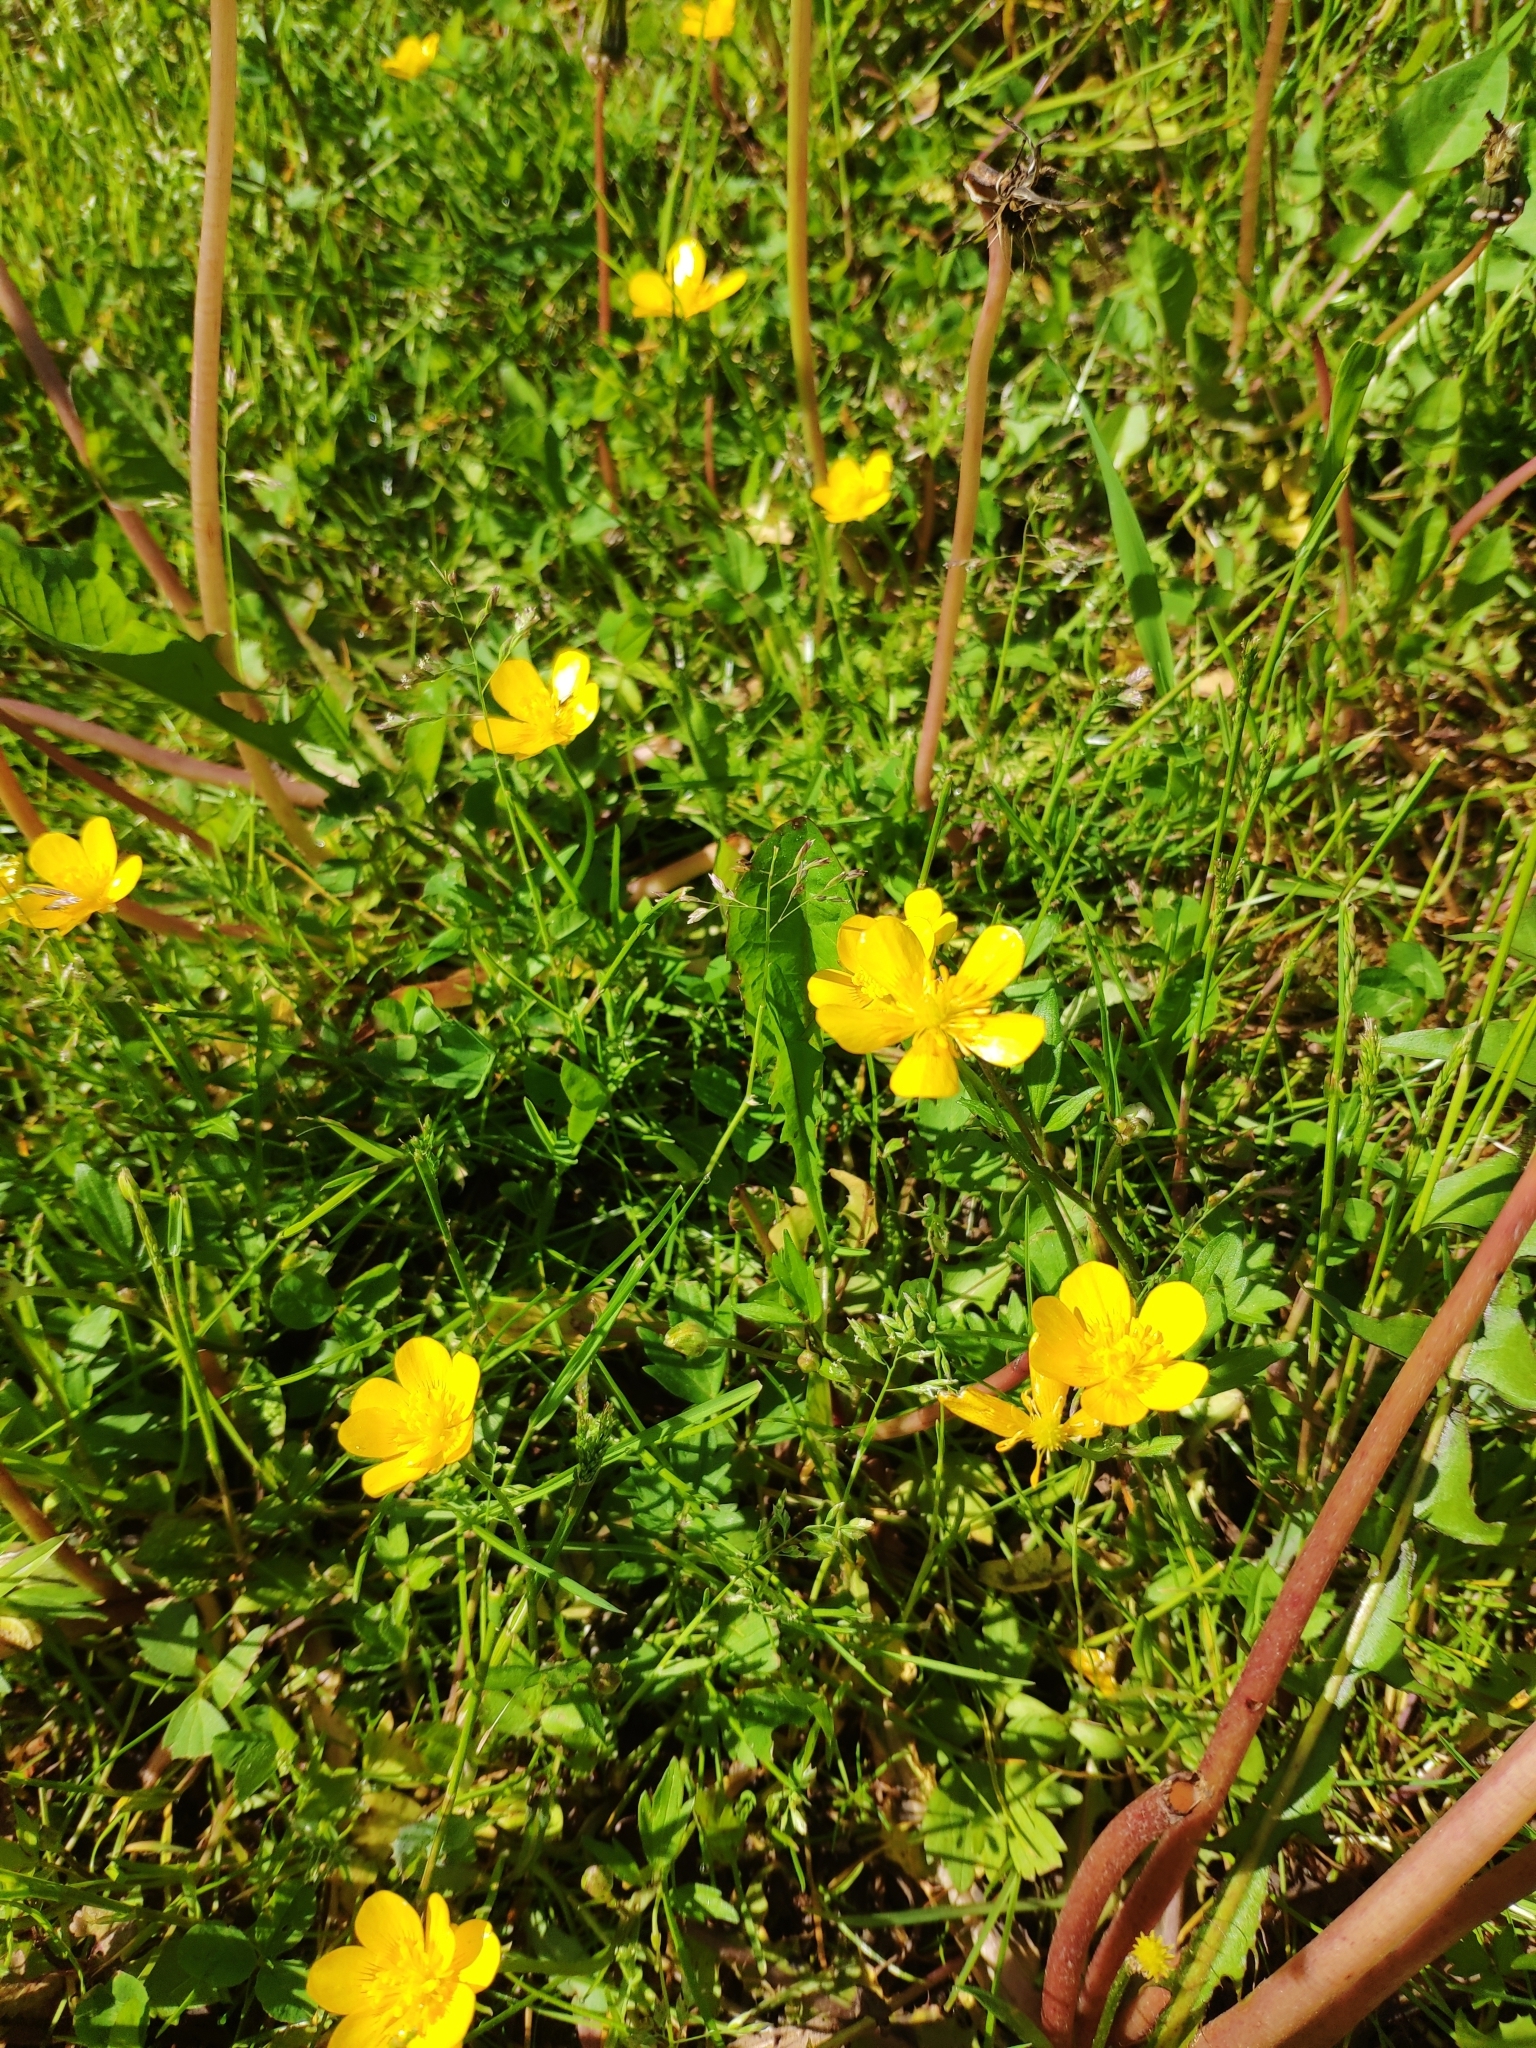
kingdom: Plantae
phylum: Tracheophyta
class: Magnoliopsida
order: Ranunculales
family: Ranunculaceae
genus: Ranunculus
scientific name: Ranunculus repens
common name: Creeping buttercup
